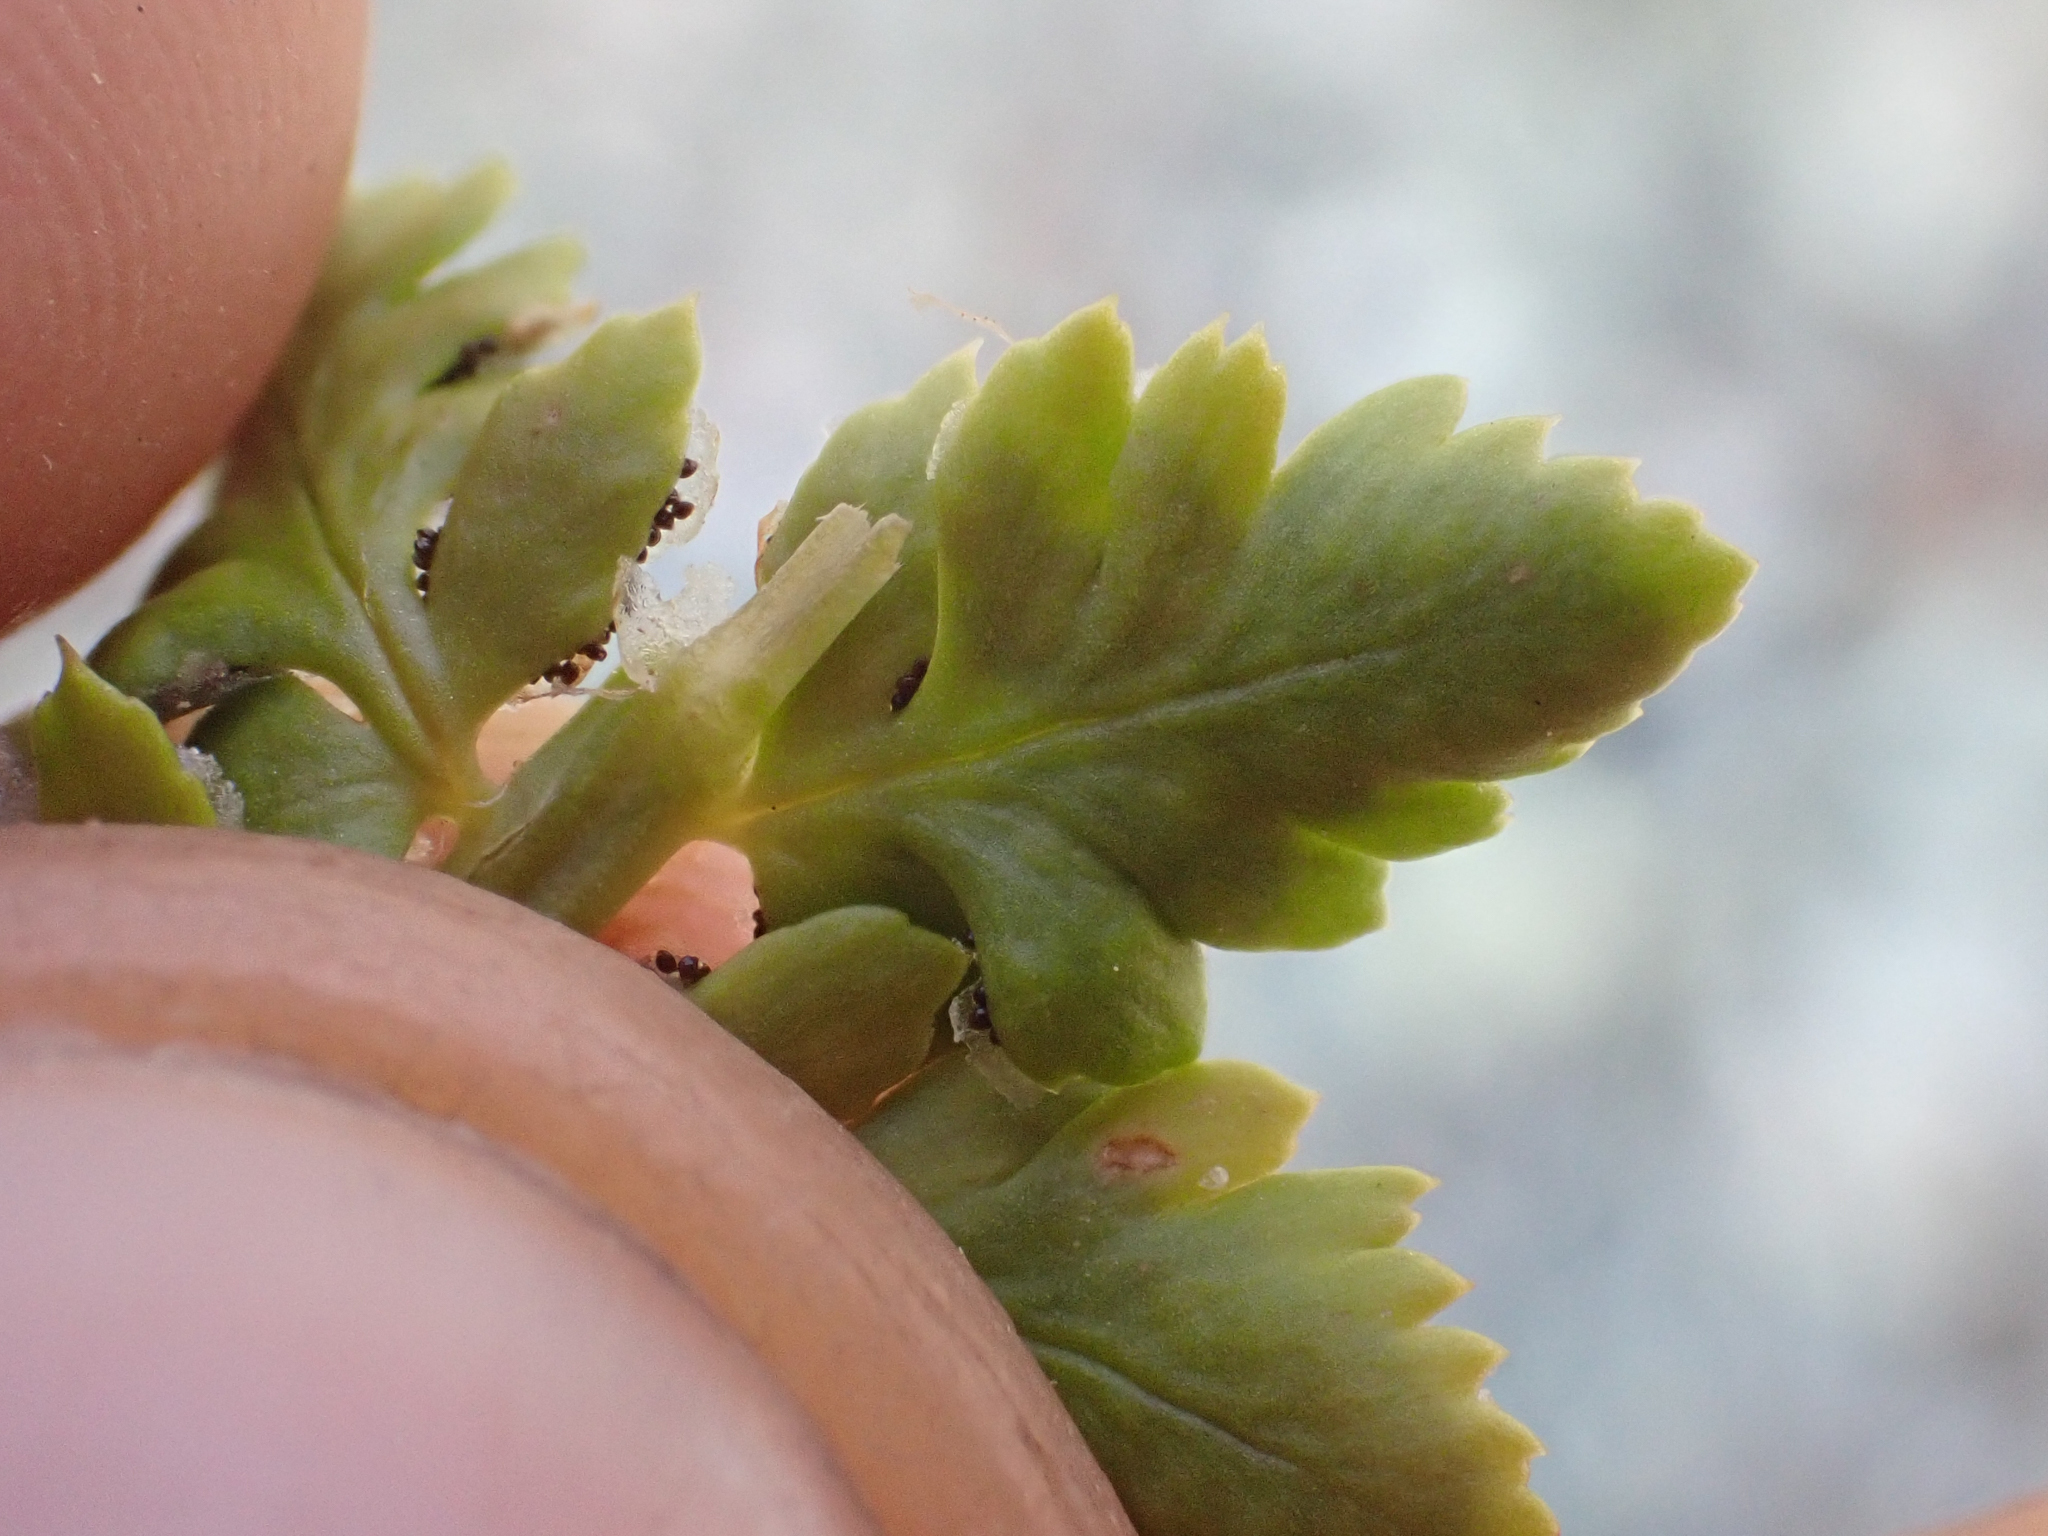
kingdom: Plantae
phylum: Tracheophyta
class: Polypodiopsida
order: Polypodiales
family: Dryopteridaceae
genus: Polystichum
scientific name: Polystichum kruckebergii
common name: Kruckeberg's holly fern
